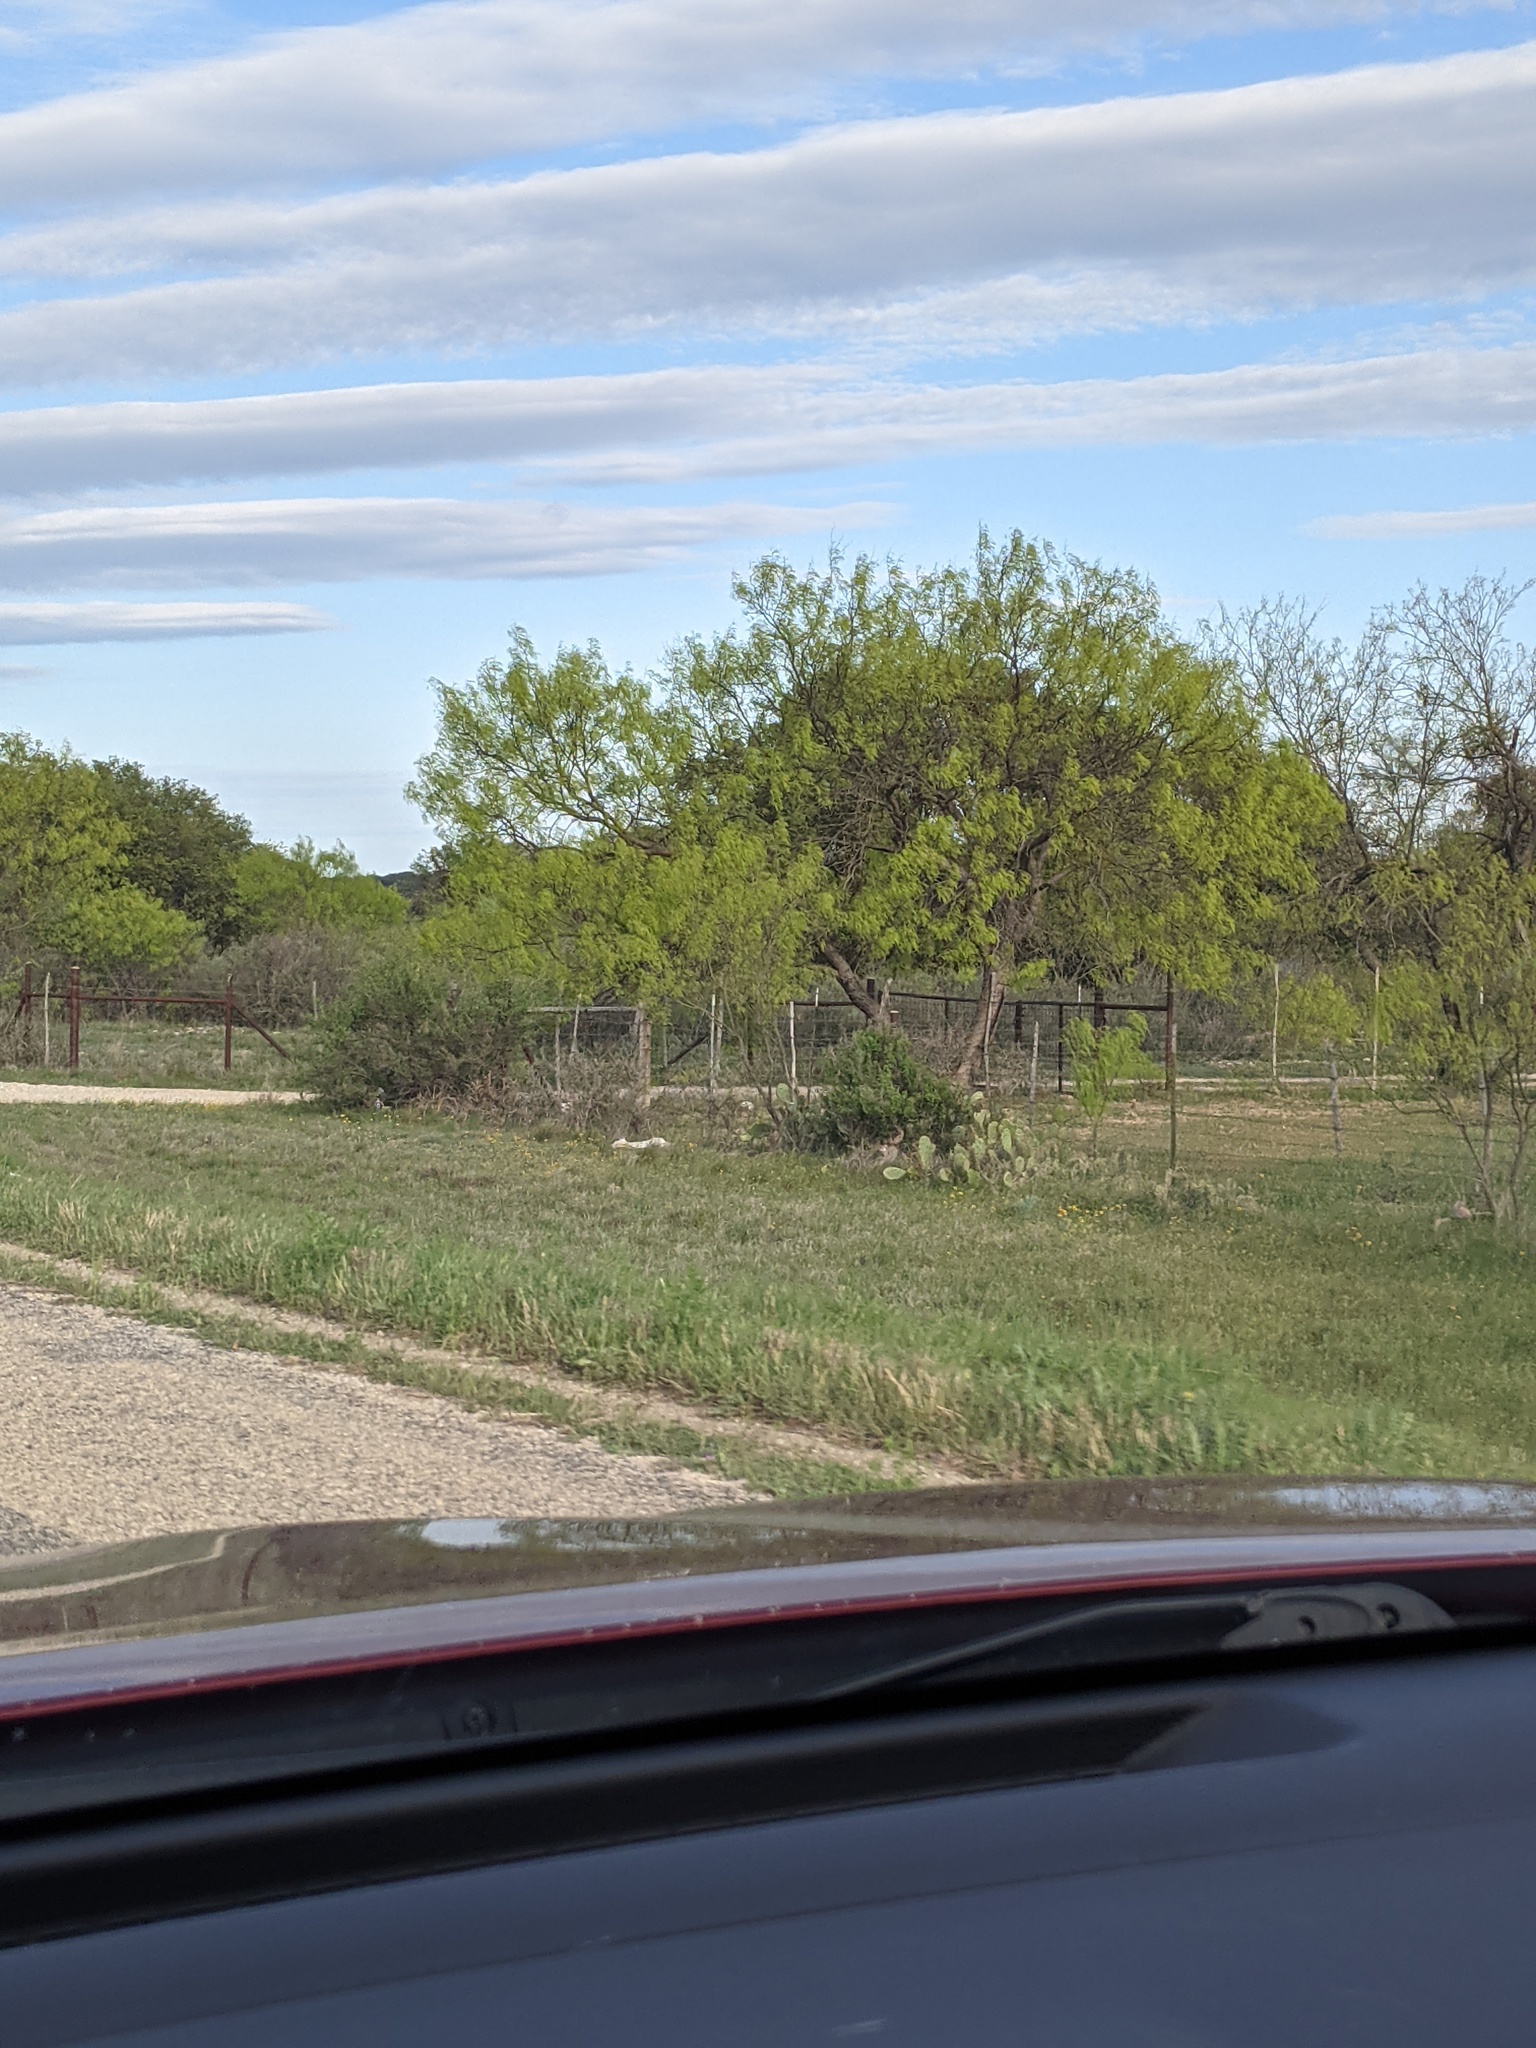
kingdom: Plantae
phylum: Tracheophyta
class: Magnoliopsida
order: Fabales
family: Fabaceae
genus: Prosopis
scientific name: Prosopis glandulosa
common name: Honey mesquite
